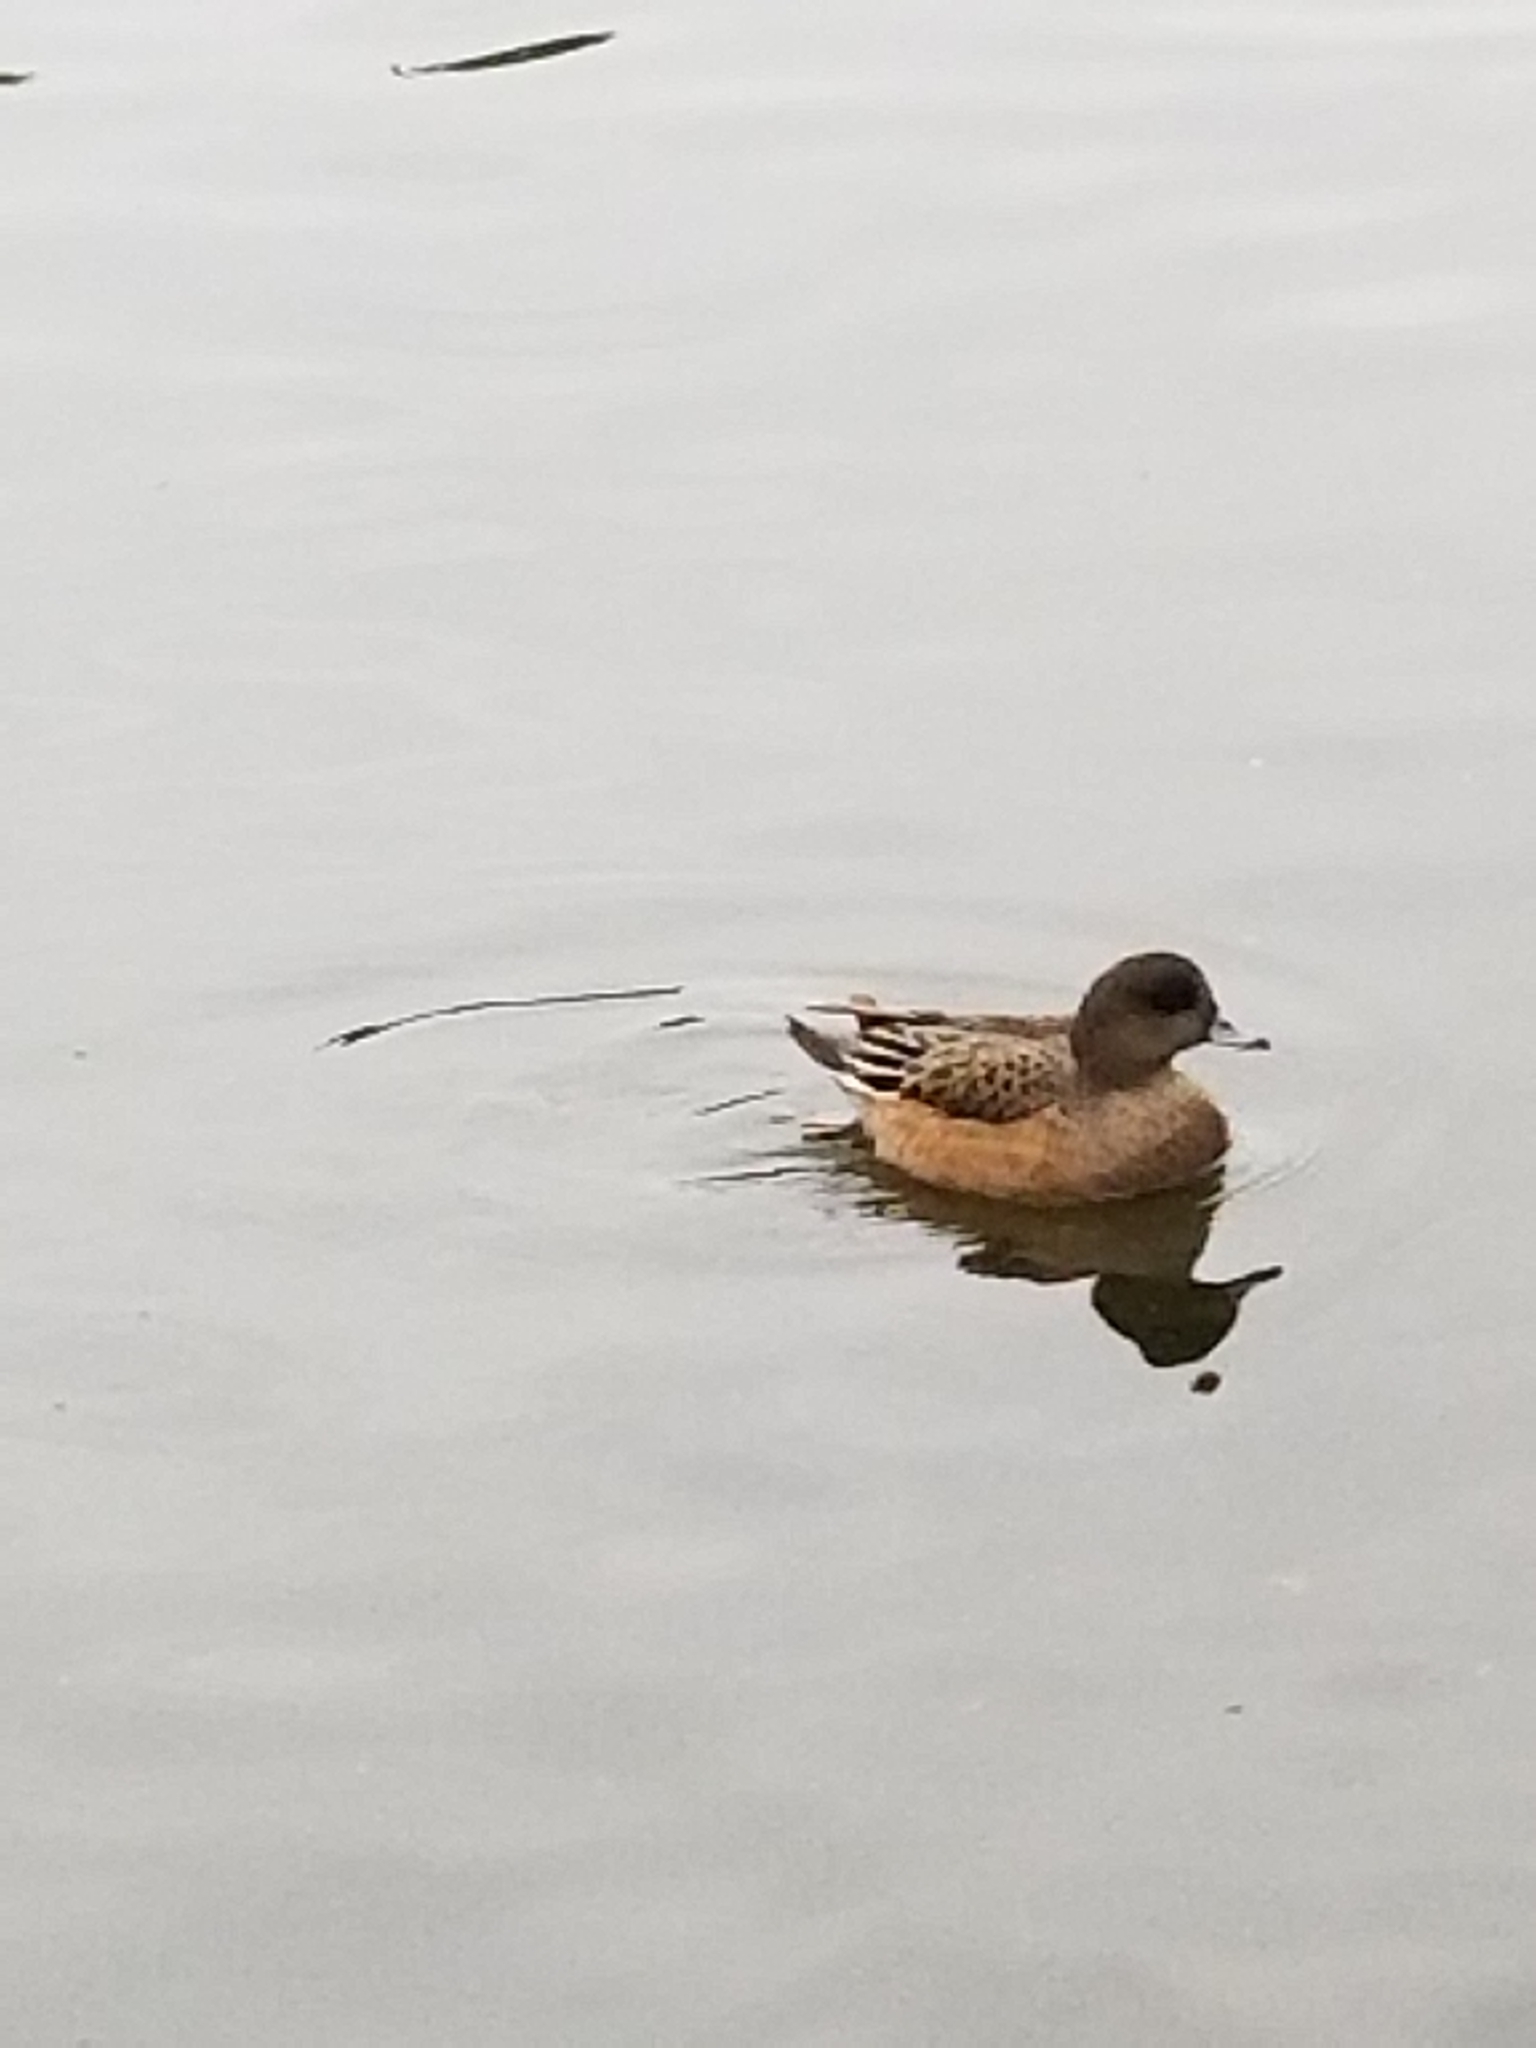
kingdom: Animalia
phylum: Chordata
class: Aves
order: Anseriformes
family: Anatidae
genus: Mareca
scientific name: Mareca americana
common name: American wigeon
